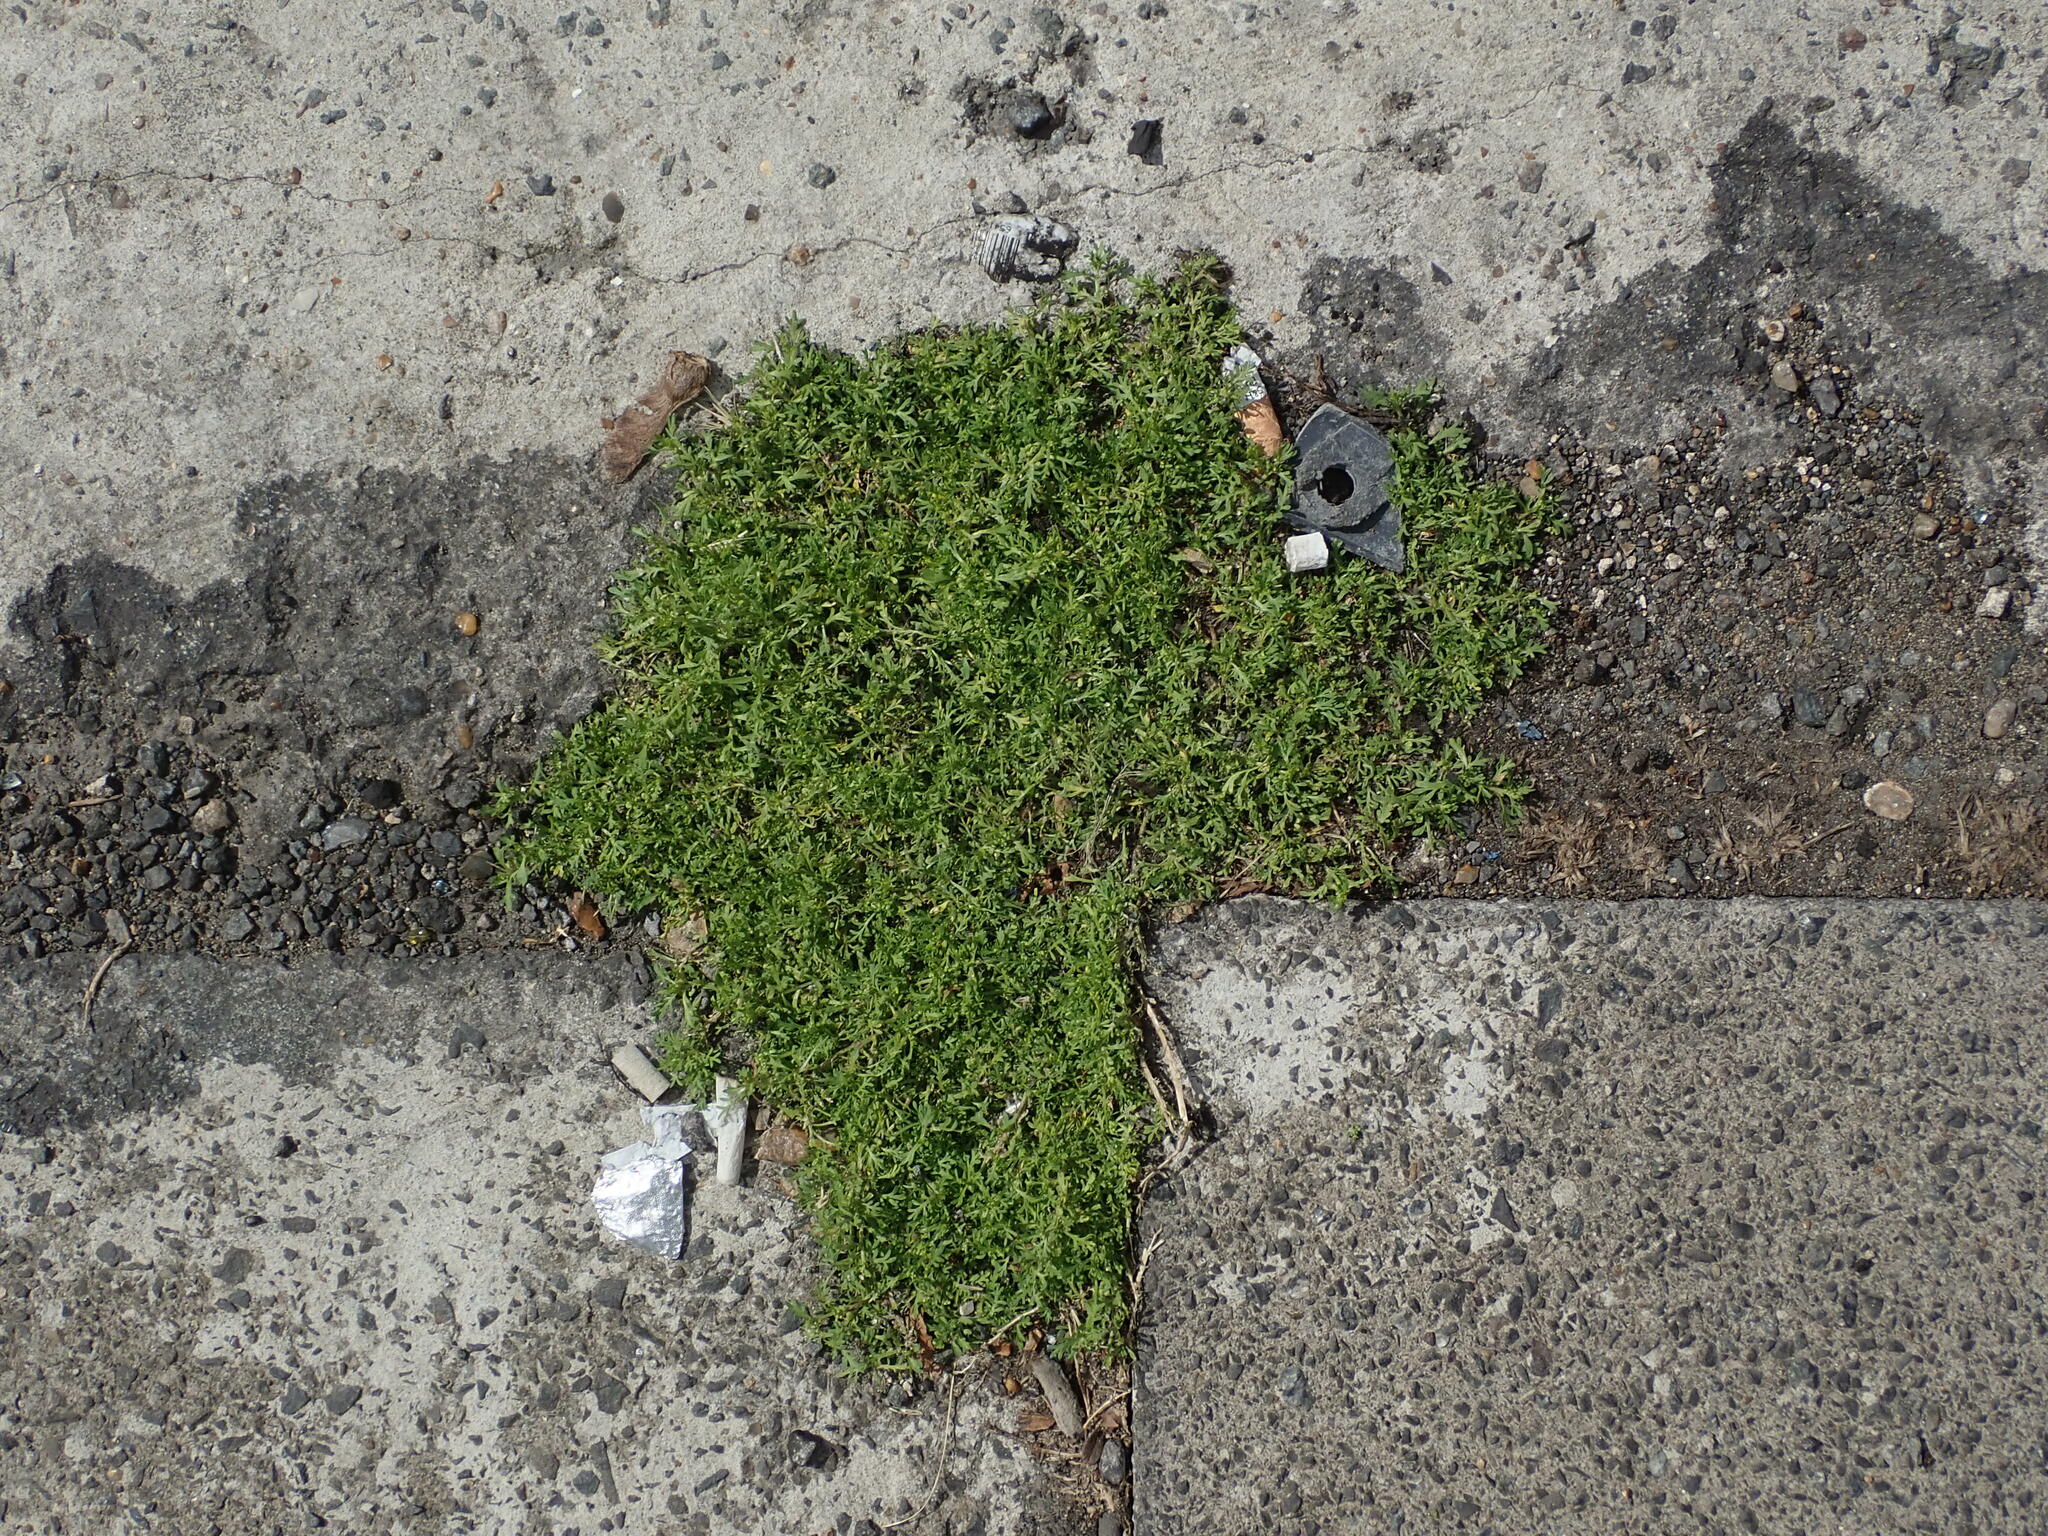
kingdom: Plantae
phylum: Tracheophyta
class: Magnoliopsida
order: Brassicales
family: Brassicaceae
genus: Lepidium
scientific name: Lepidium didymum
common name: Lesser swinecress
